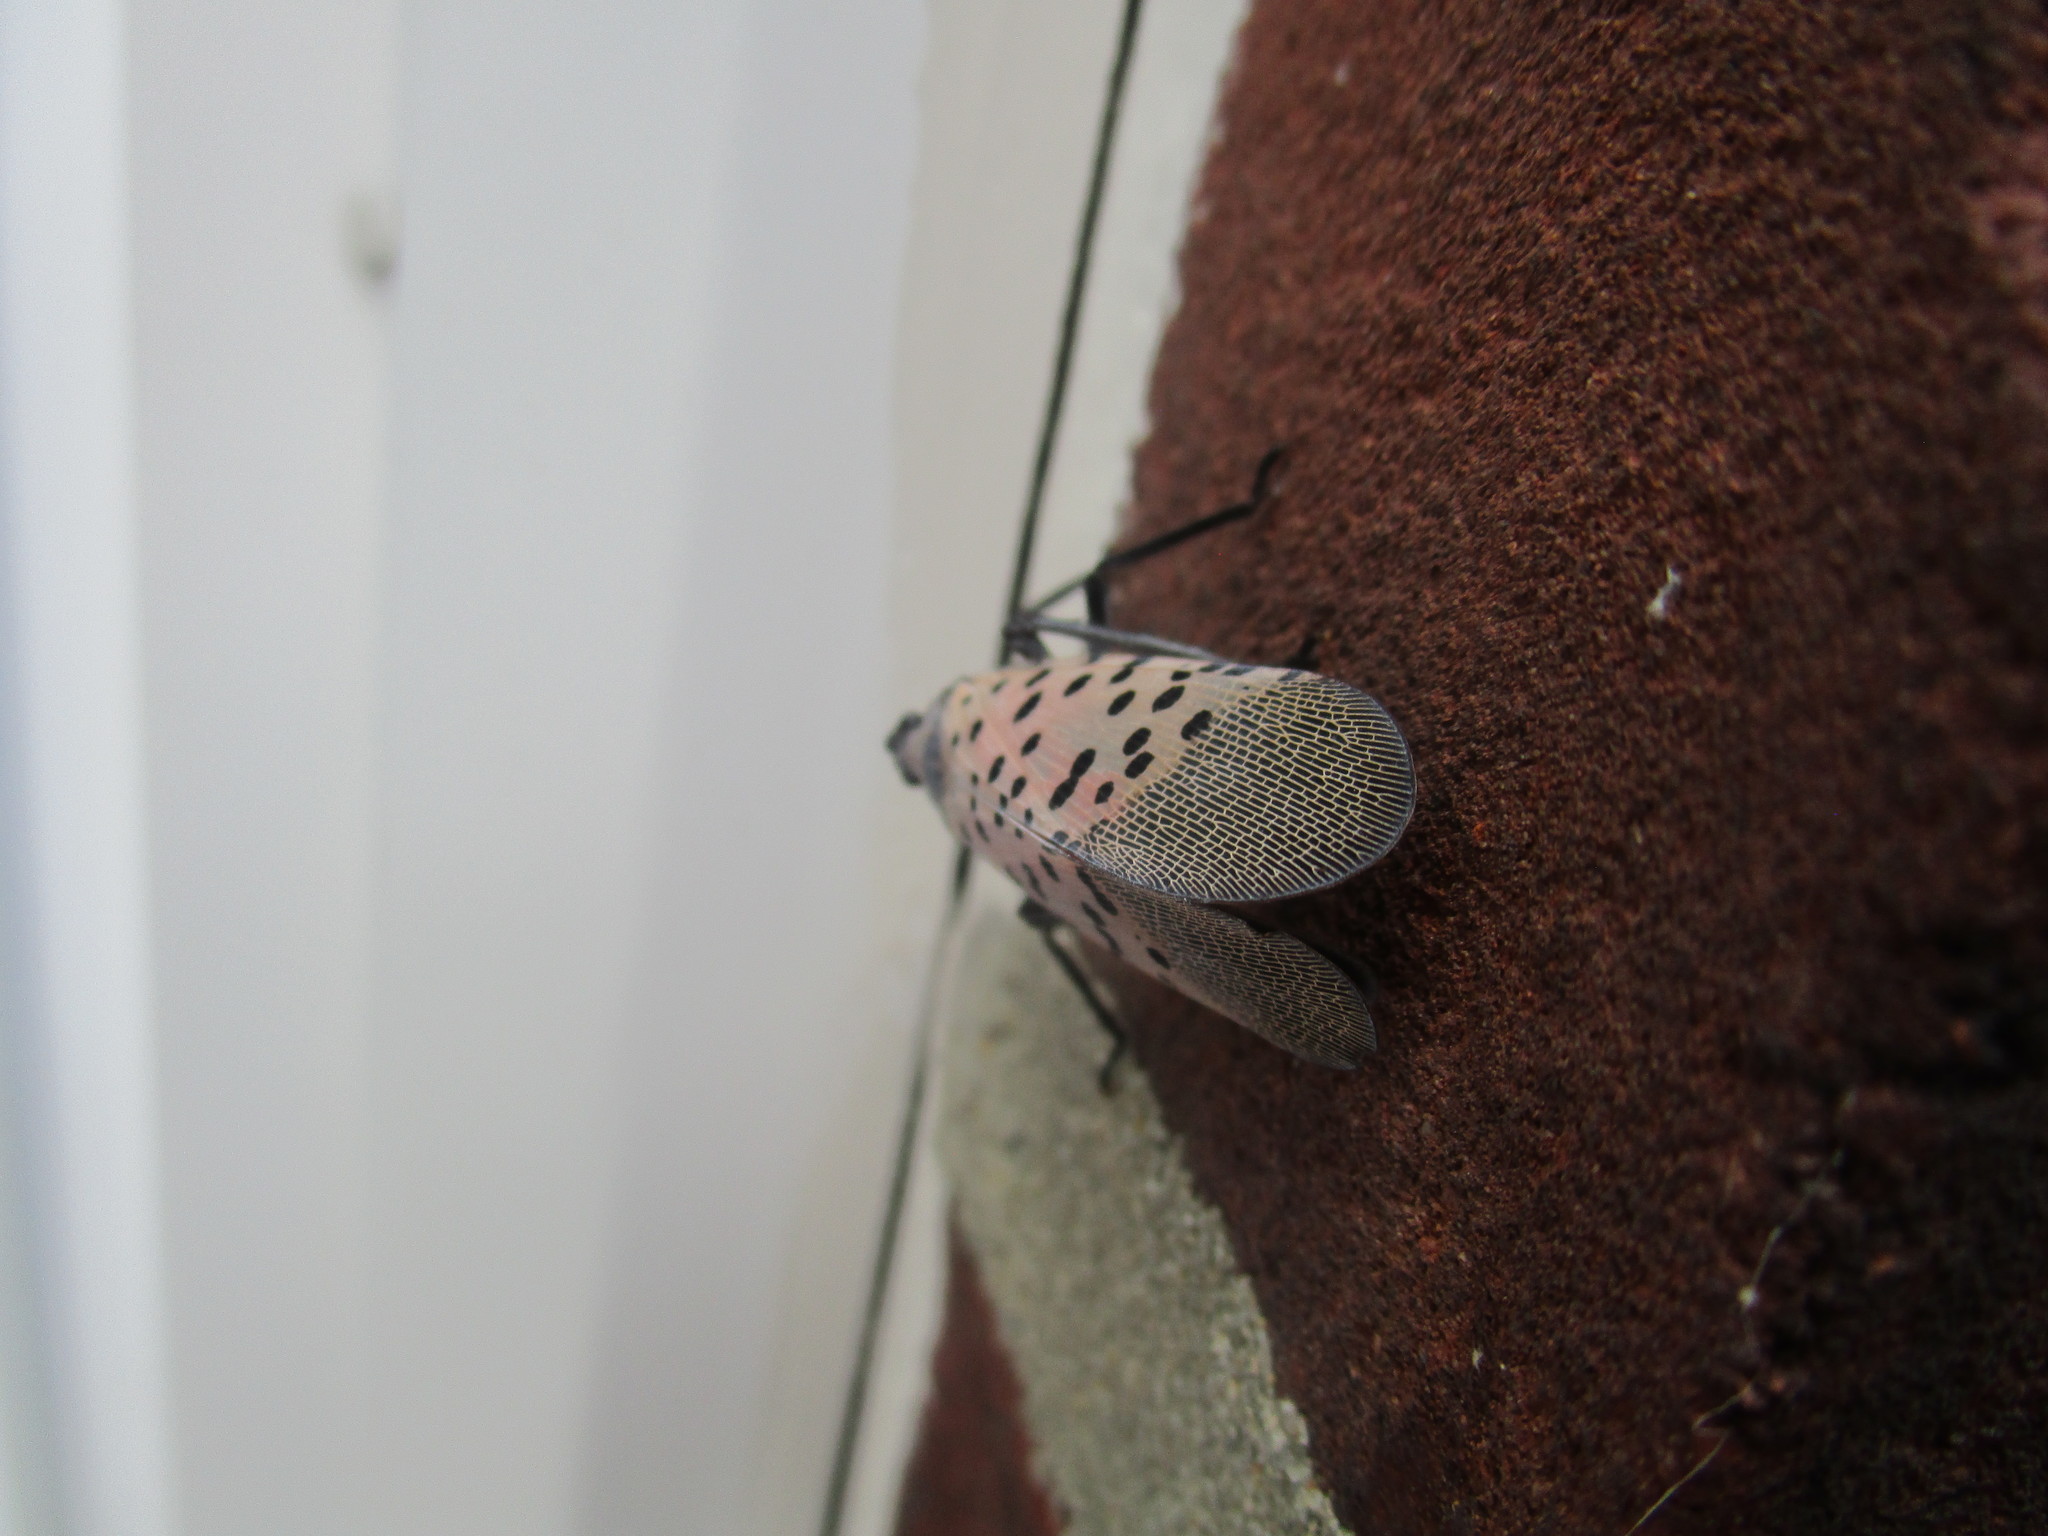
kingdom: Animalia
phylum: Arthropoda
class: Insecta
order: Hemiptera
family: Fulgoridae
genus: Lycorma
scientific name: Lycorma delicatula
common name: Spotted lanternfly
